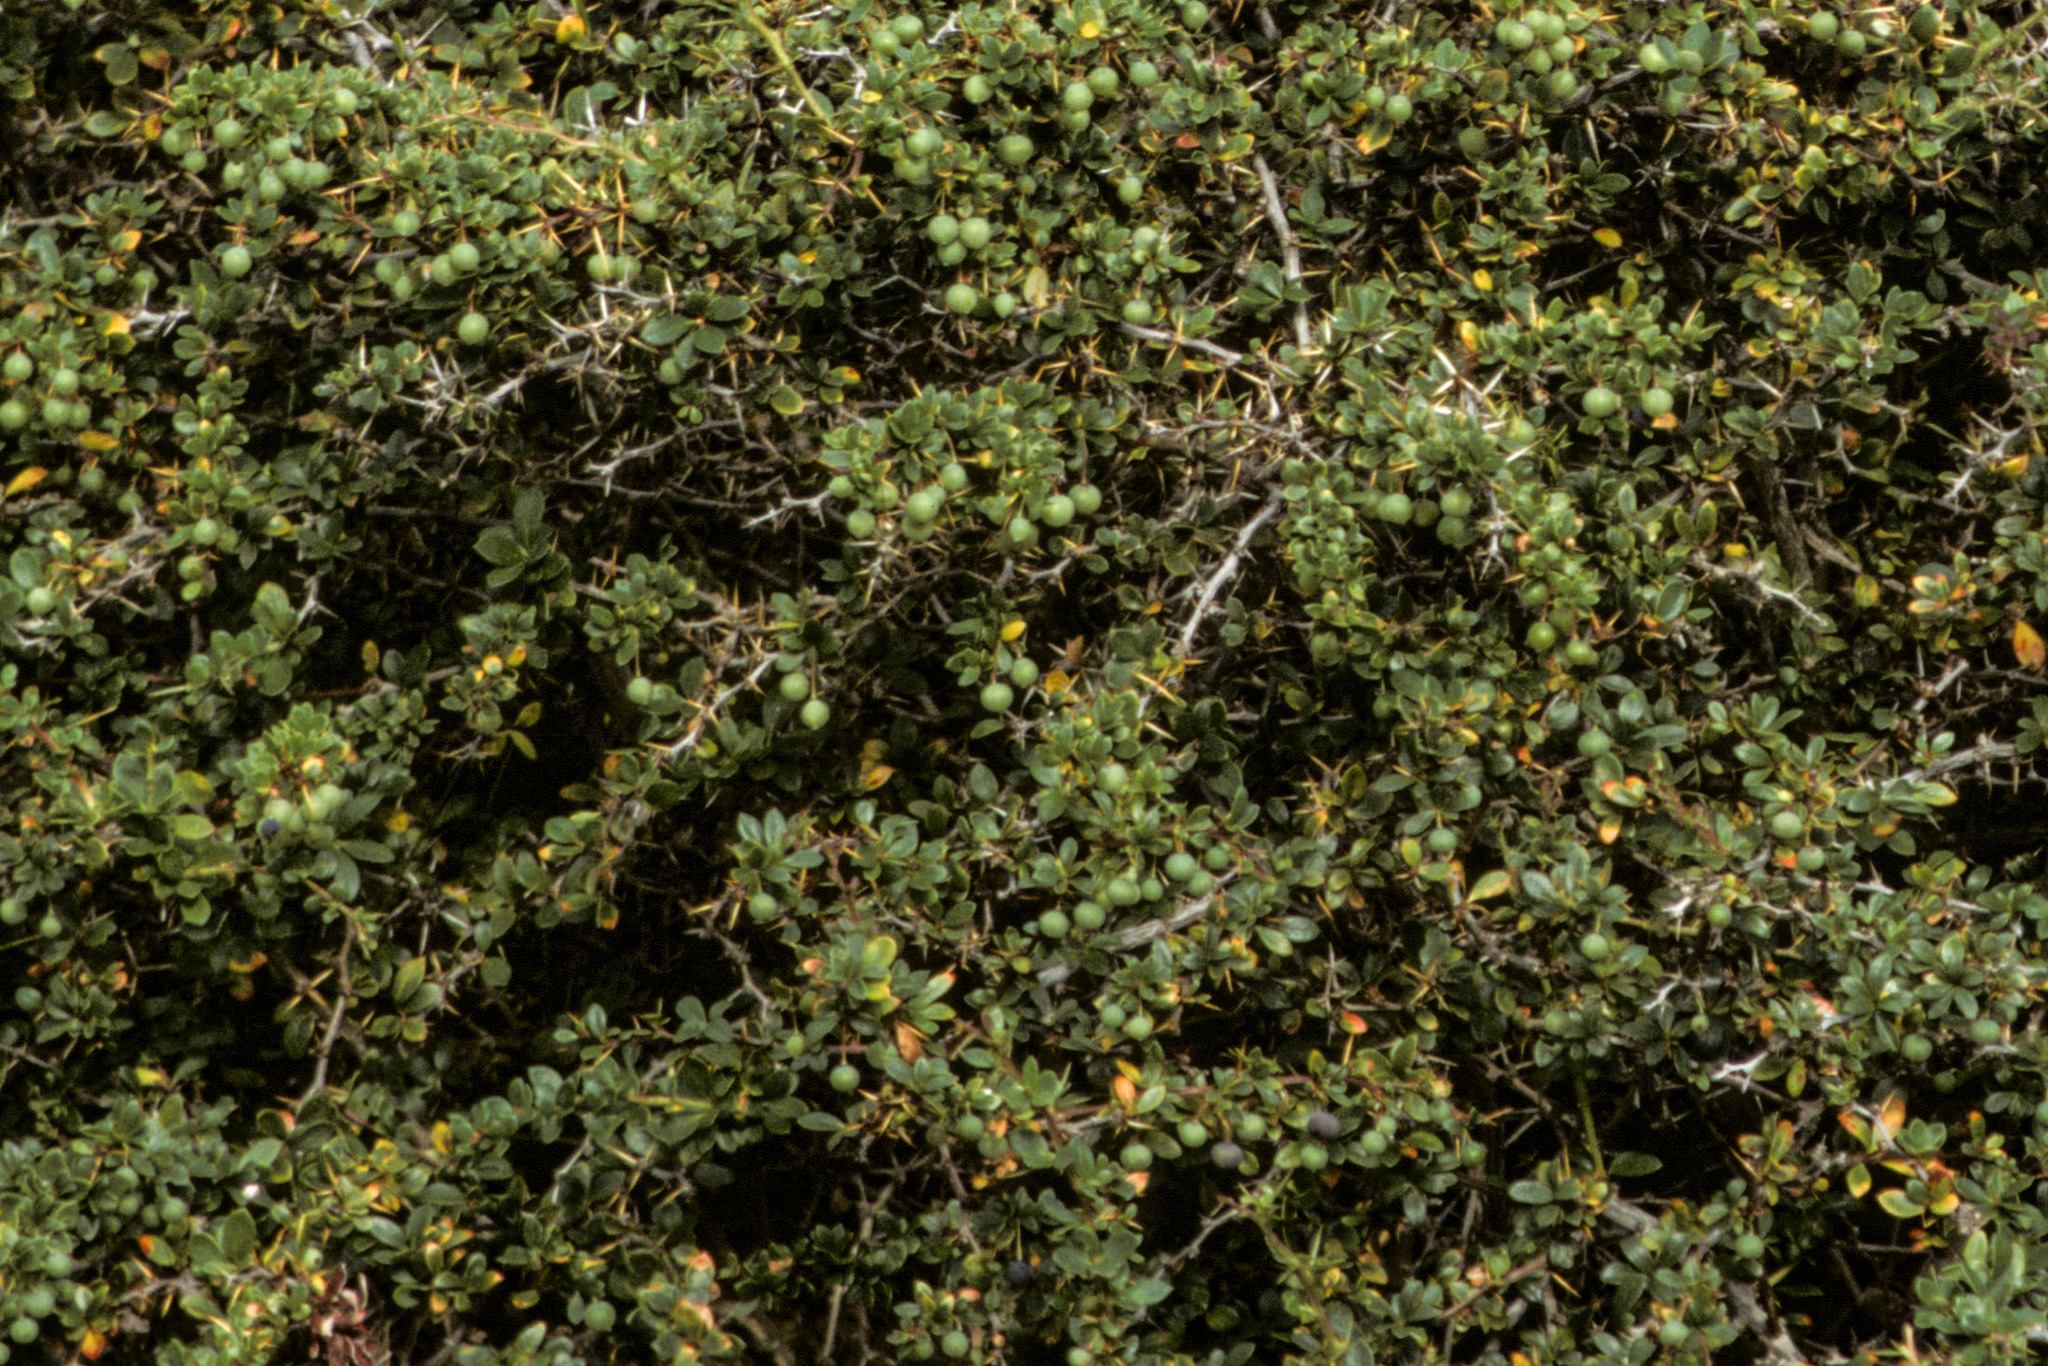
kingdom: Plantae
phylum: Tracheophyta
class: Magnoliopsida
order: Ranunculales
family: Berberidaceae
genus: Berberis
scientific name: Berberis microphylla
